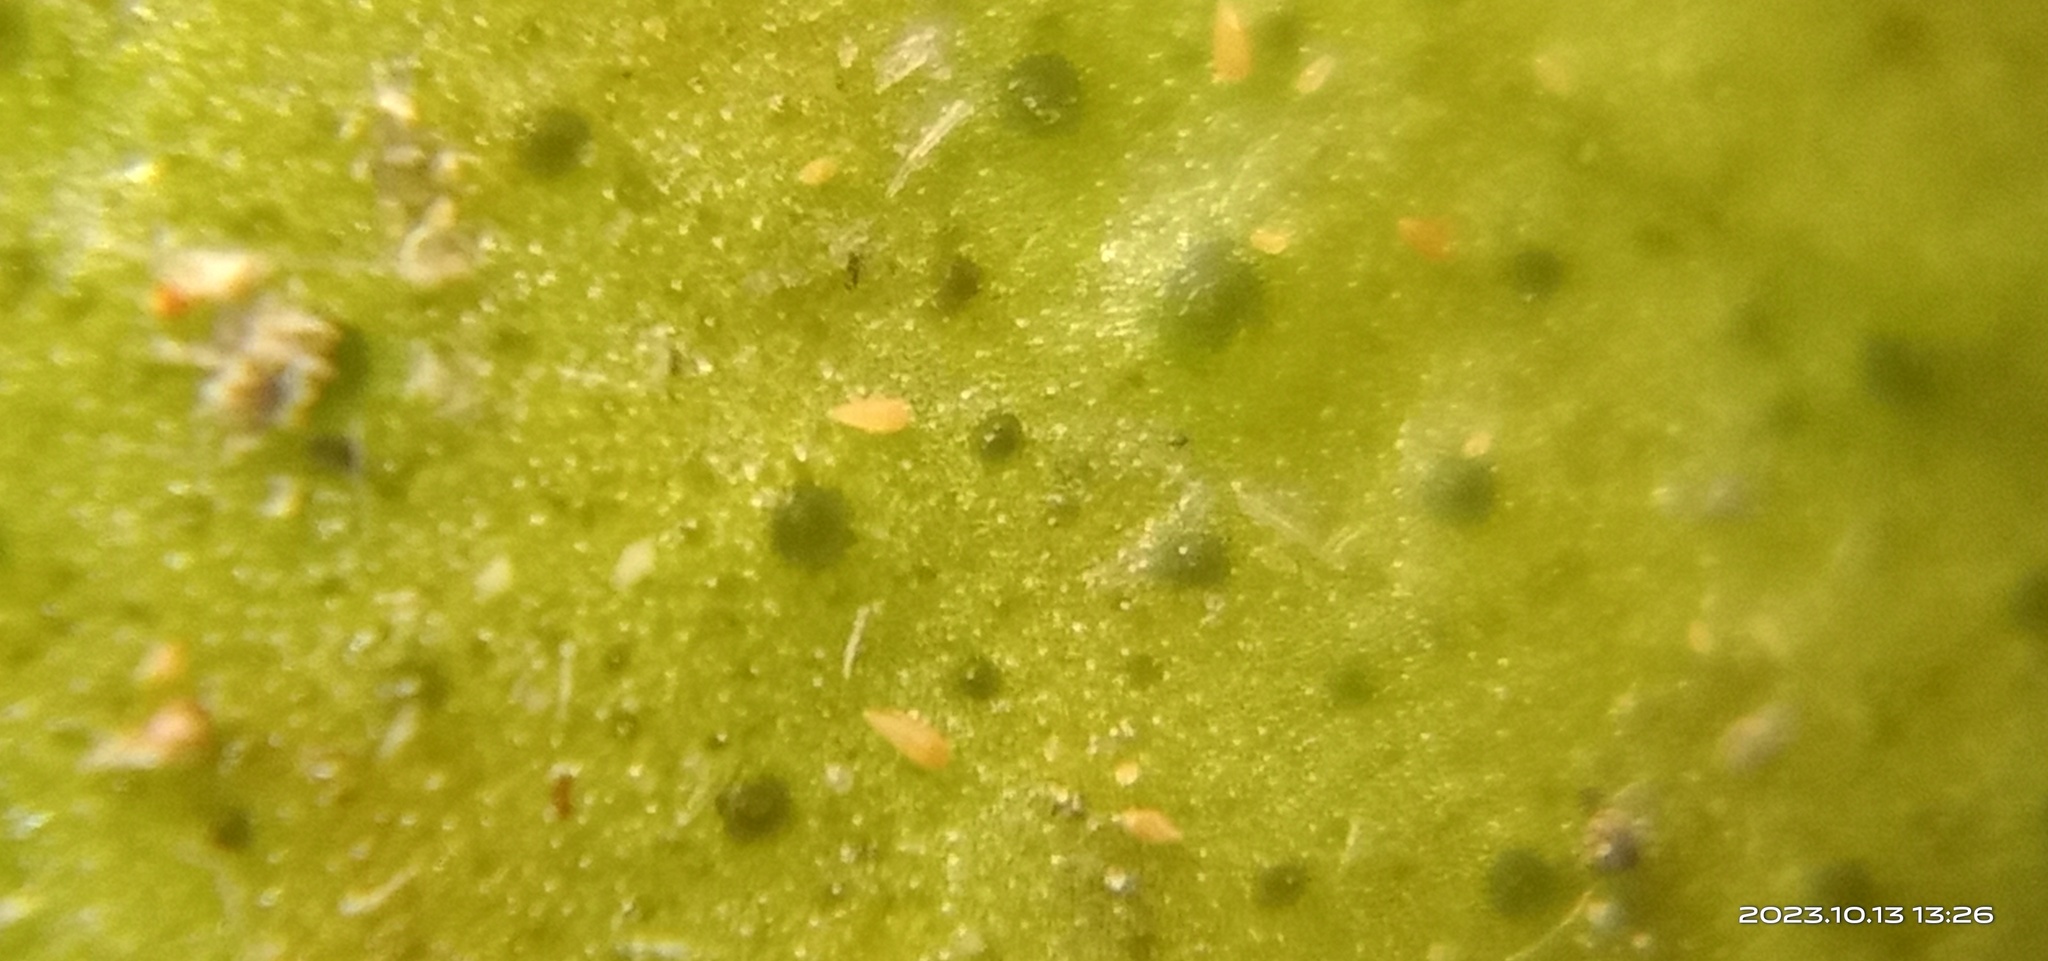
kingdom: Animalia
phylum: Arthropoda
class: Arachnida
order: Trombidiformes
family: Eriophyidae
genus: Phyllocoptruta
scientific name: Phyllocoptruta oleivora
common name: Citrus rust mite
